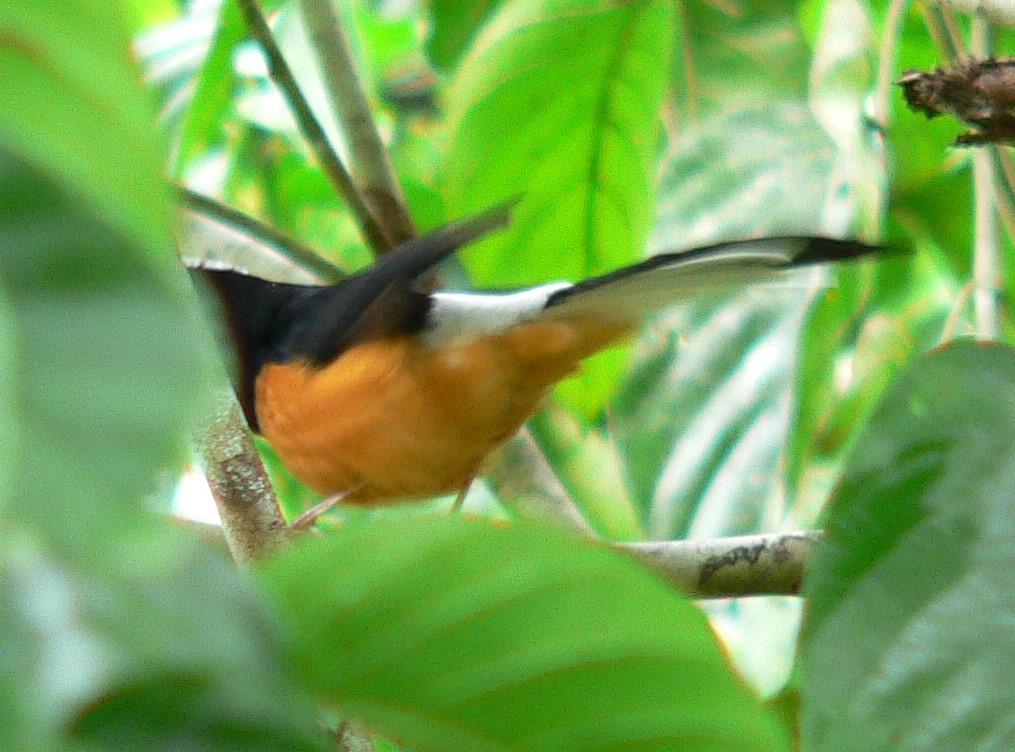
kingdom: Animalia
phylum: Chordata
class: Aves
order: Passeriformes
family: Muscicapidae
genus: Copsychus
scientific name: Copsychus stricklandii
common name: White-crowned shama
